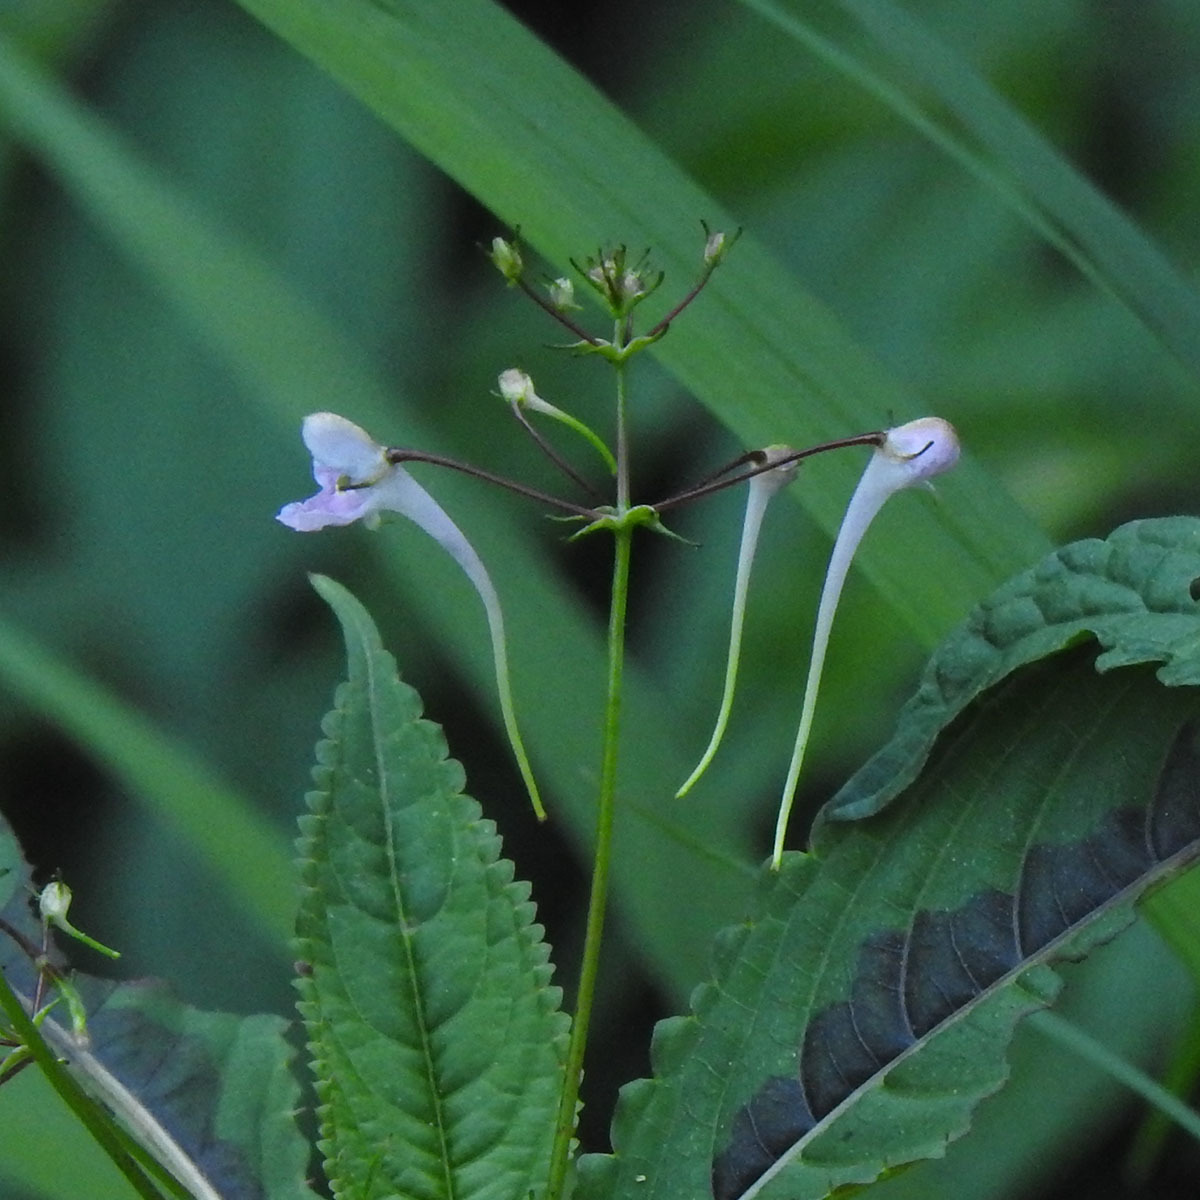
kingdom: Plantae
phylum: Tracheophyta
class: Magnoliopsida
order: Ericales
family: Balsaminaceae
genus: Impatiens
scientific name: Impatiens graciliflora
